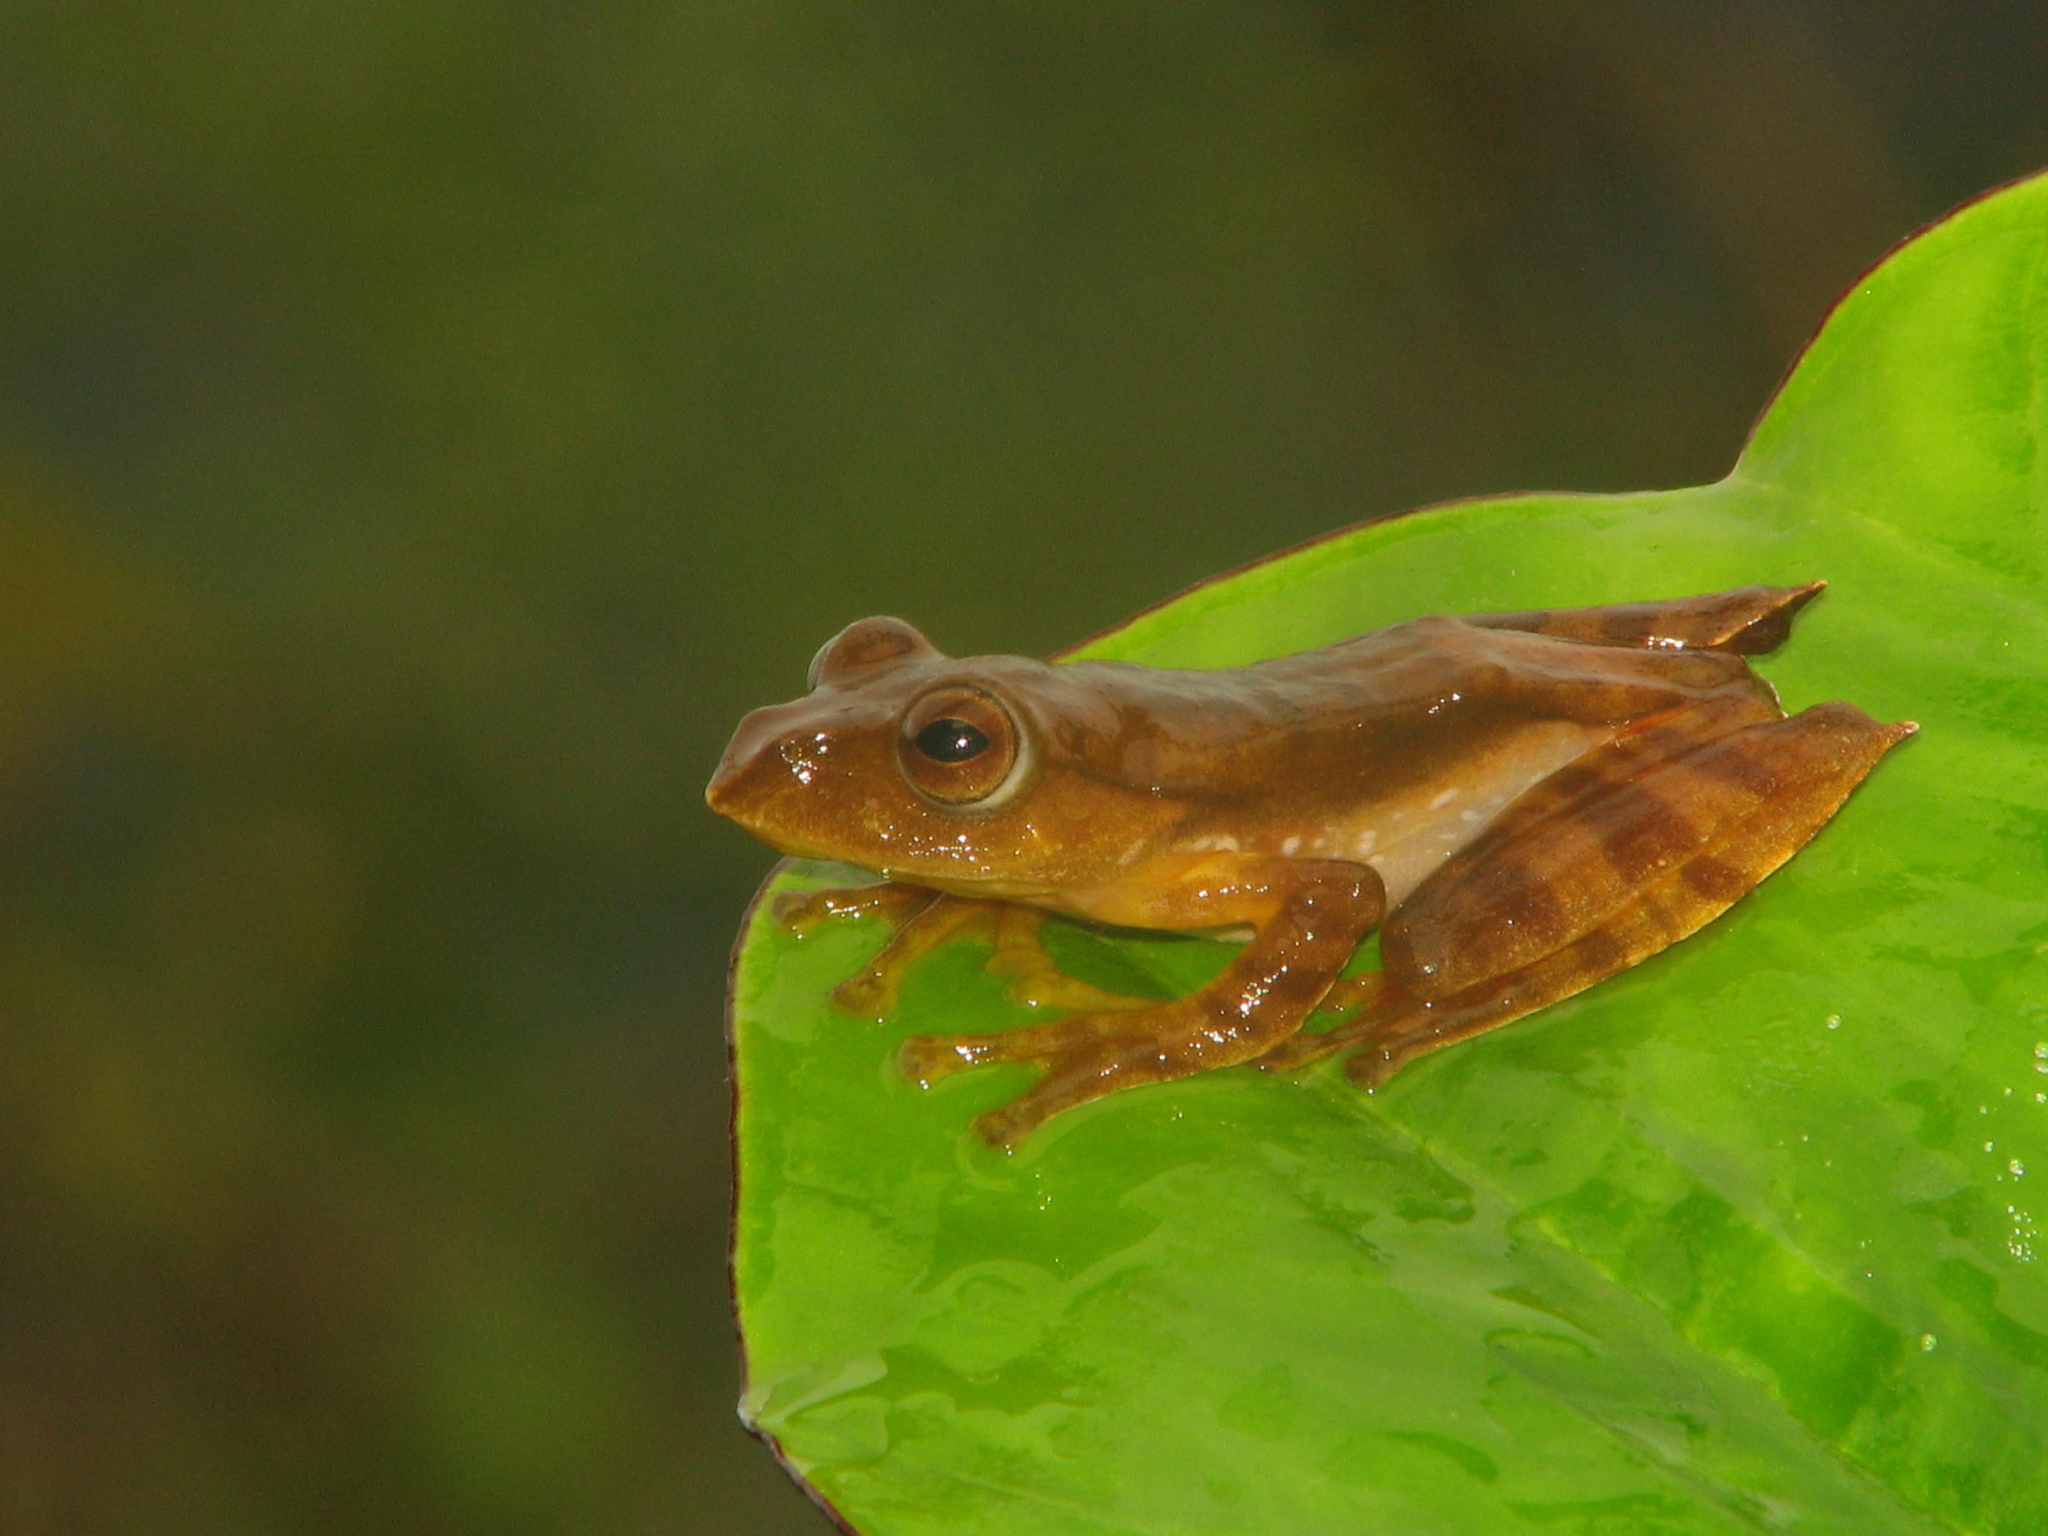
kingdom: Animalia
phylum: Chordata
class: Amphibia
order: Anura
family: Rhacophoridae
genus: Rhacophorus
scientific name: Rhacophorus translineatus
